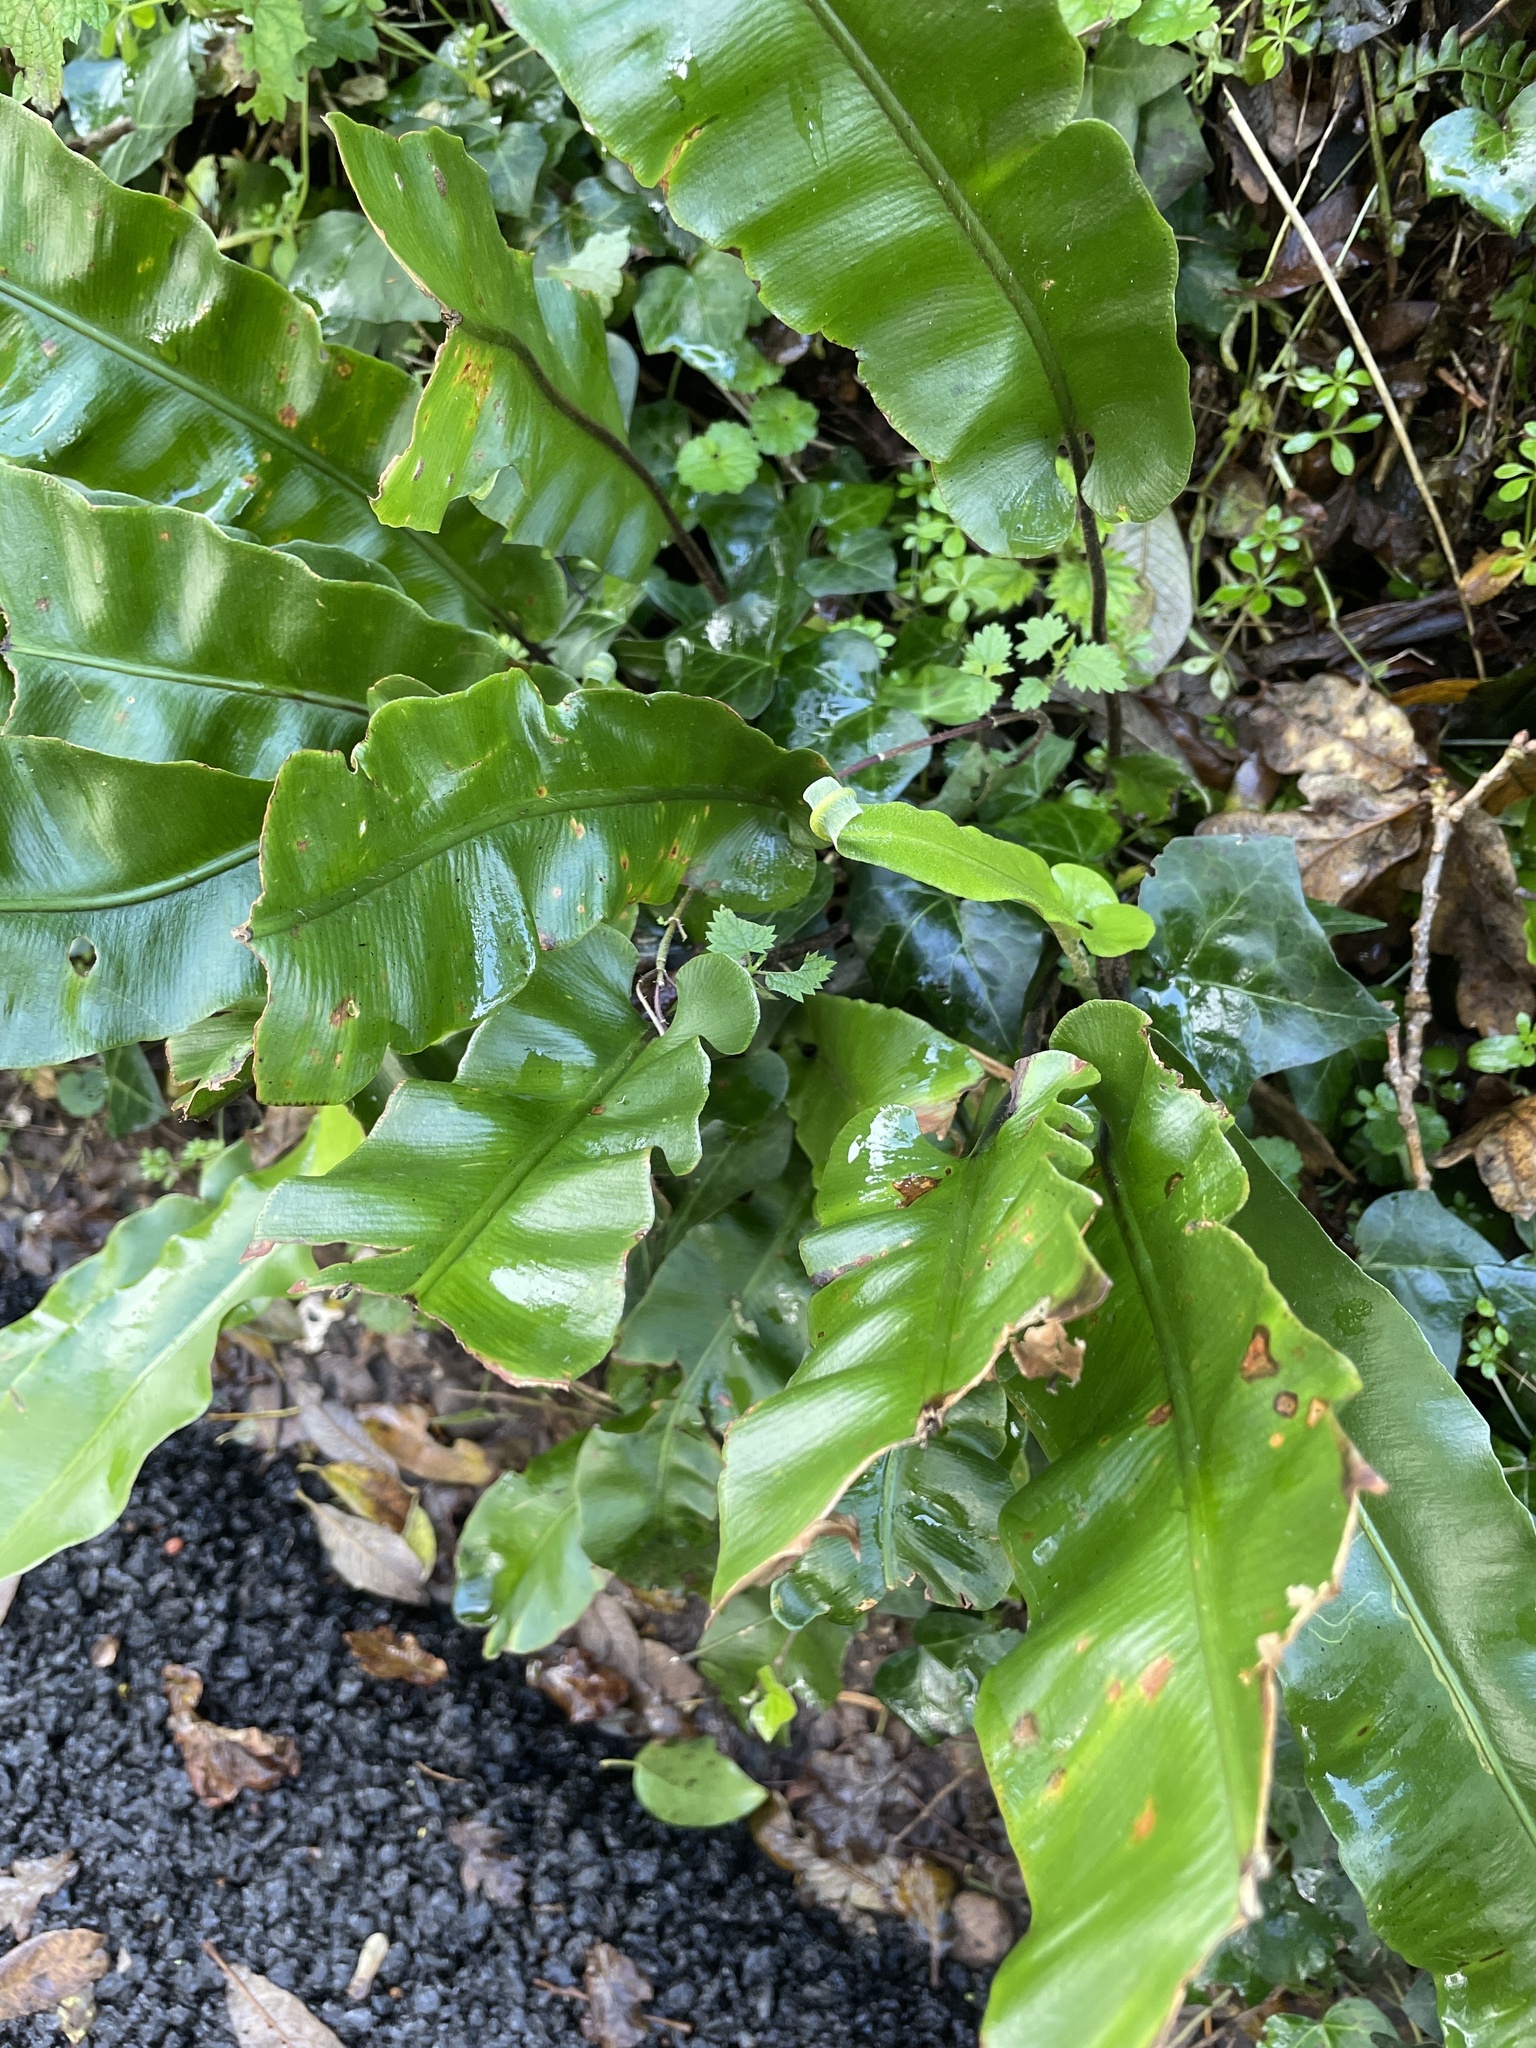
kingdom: Plantae
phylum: Tracheophyta
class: Polypodiopsida
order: Polypodiales
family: Aspleniaceae
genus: Asplenium
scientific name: Asplenium scolopendrium
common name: Hart's-tongue fern
